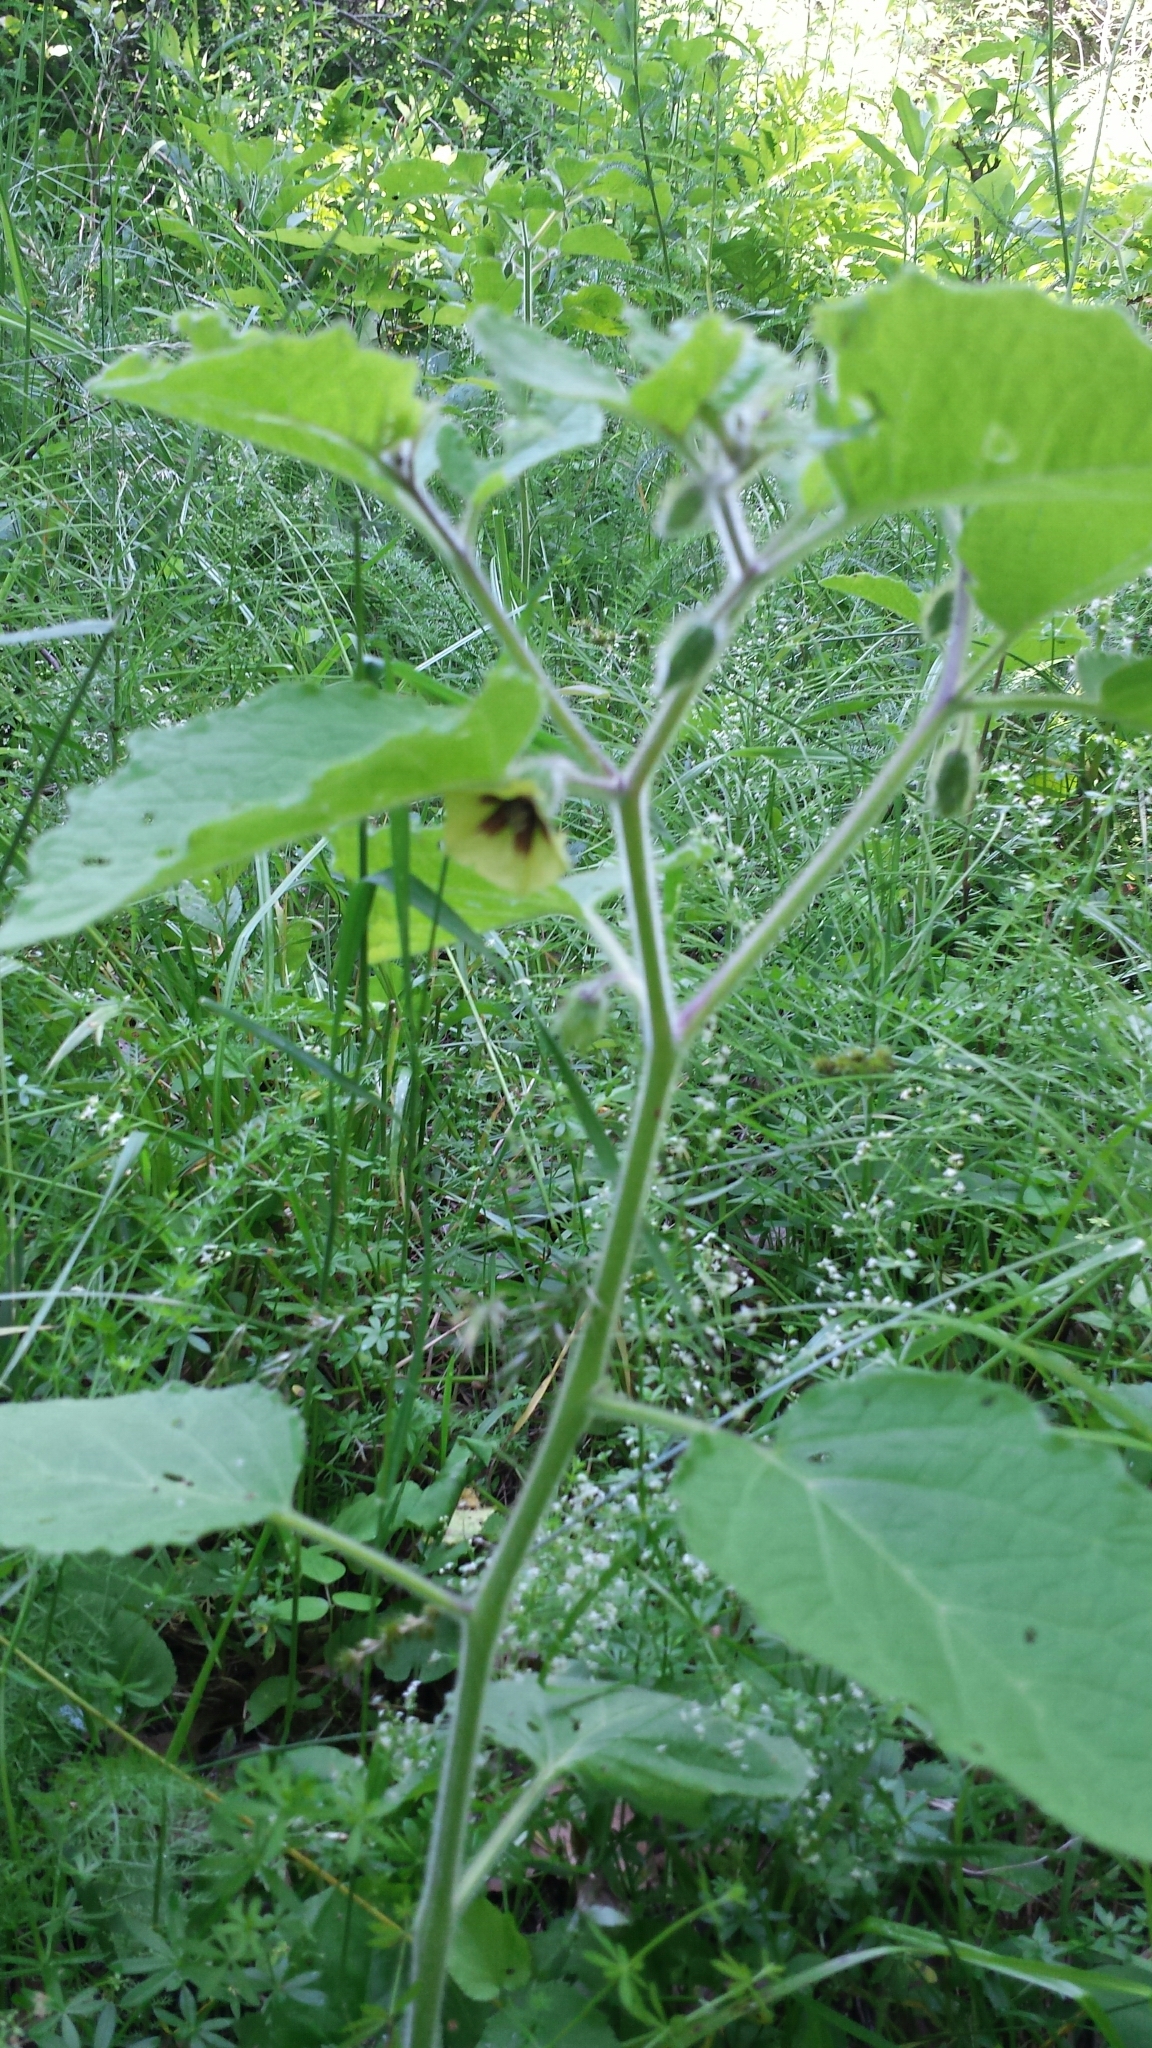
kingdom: Plantae
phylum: Tracheophyta
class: Magnoliopsida
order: Solanales
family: Solanaceae
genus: Physalis
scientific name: Physalis heterophylla
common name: Clammy ground-cherry
